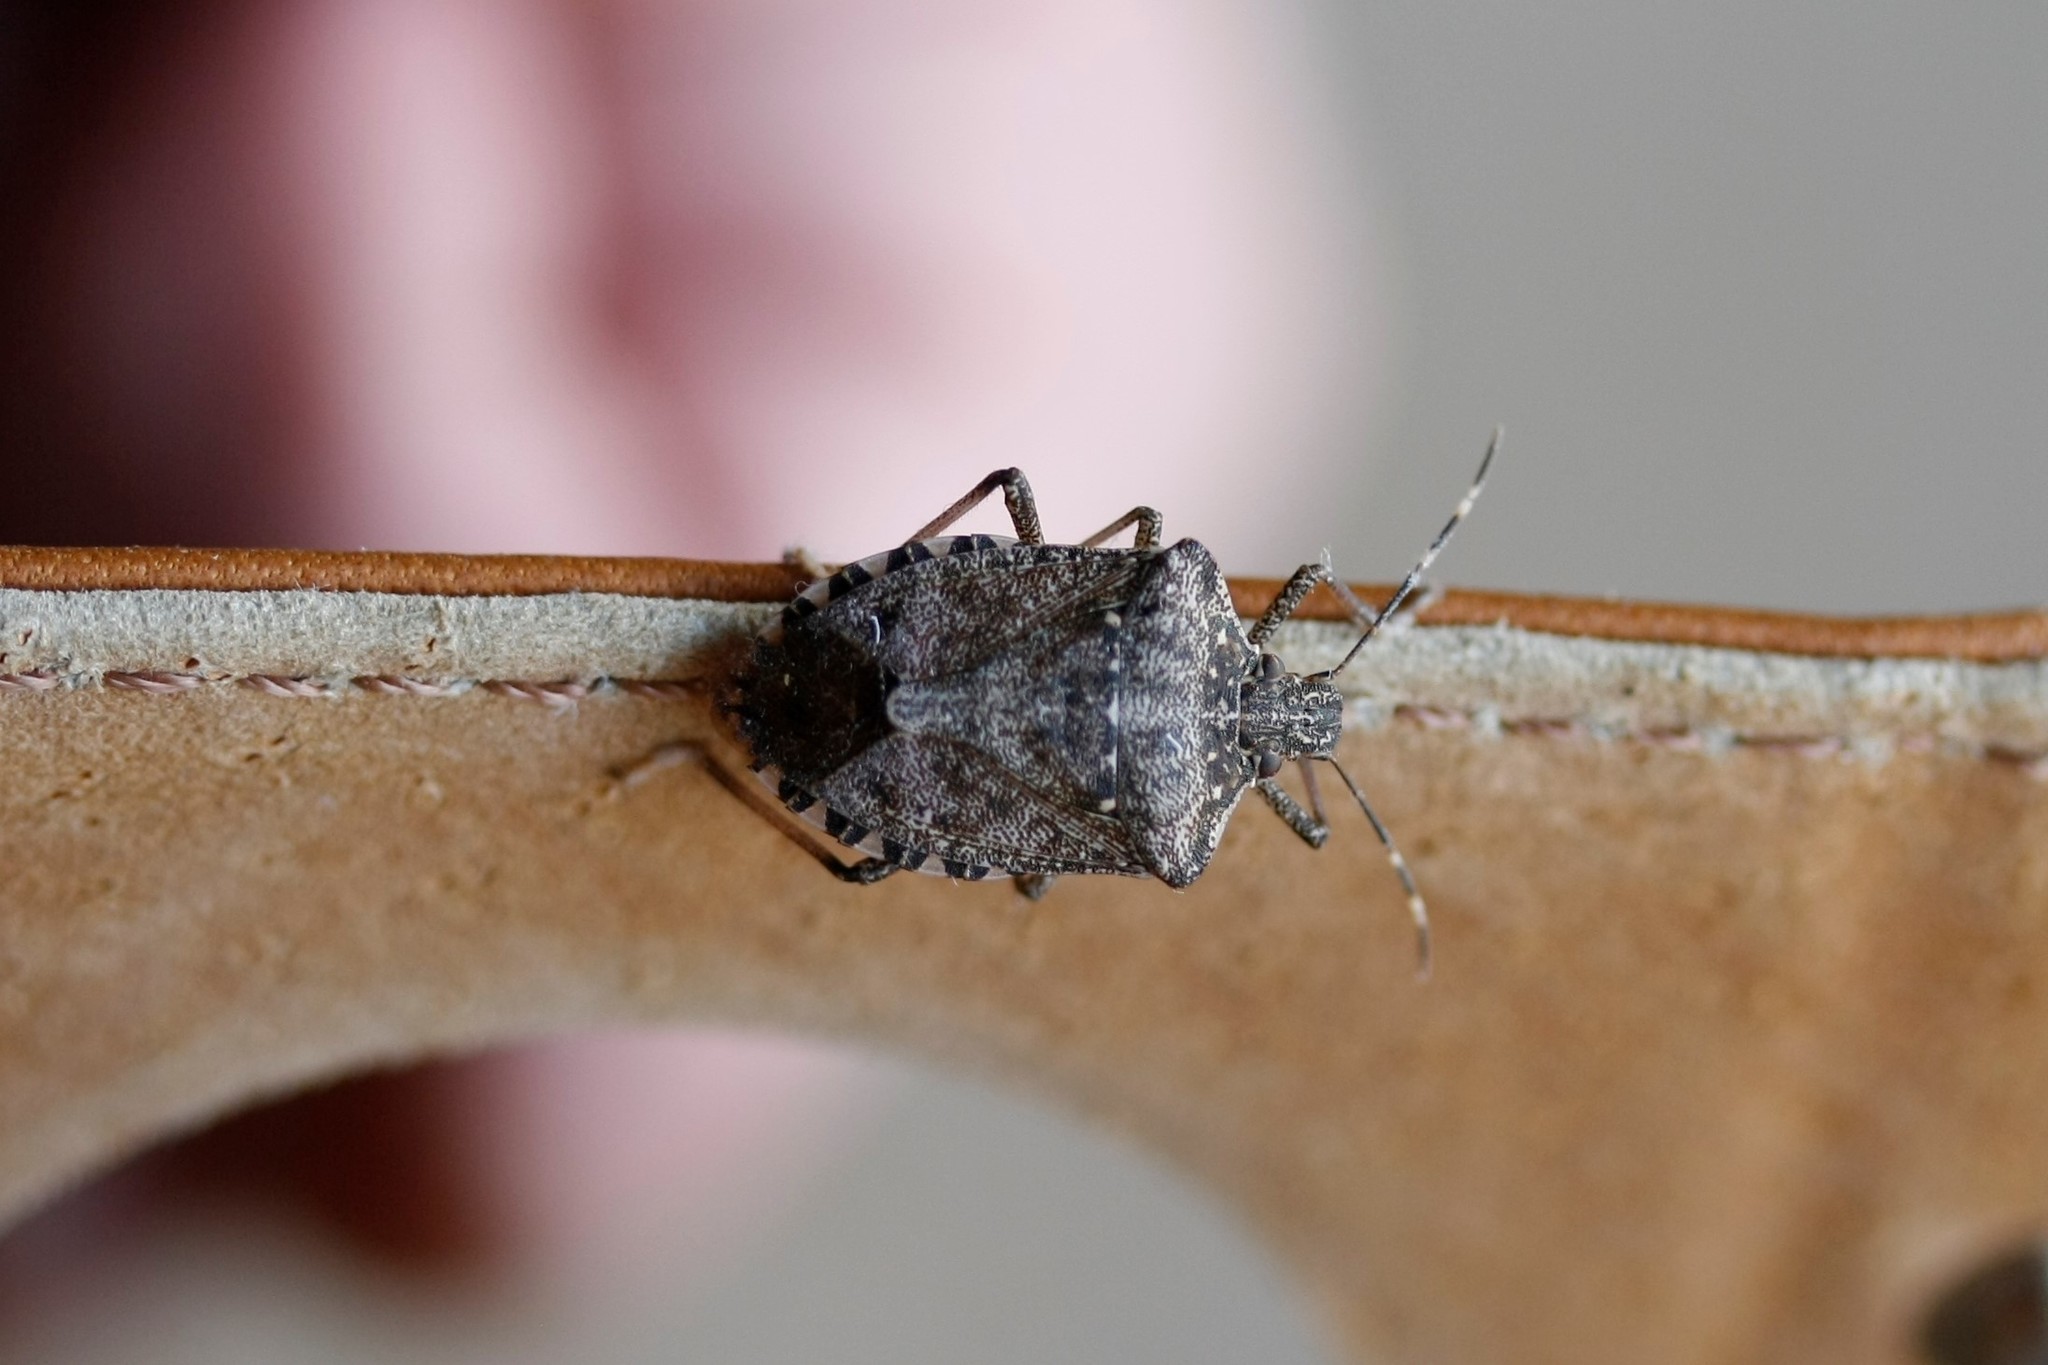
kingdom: Animalia
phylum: Arthropoda
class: Insecta
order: Hemiptera
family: Pentatomidae
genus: Halyomorpha
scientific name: Halyomorpha halys
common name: Brown marmorated stink bug
